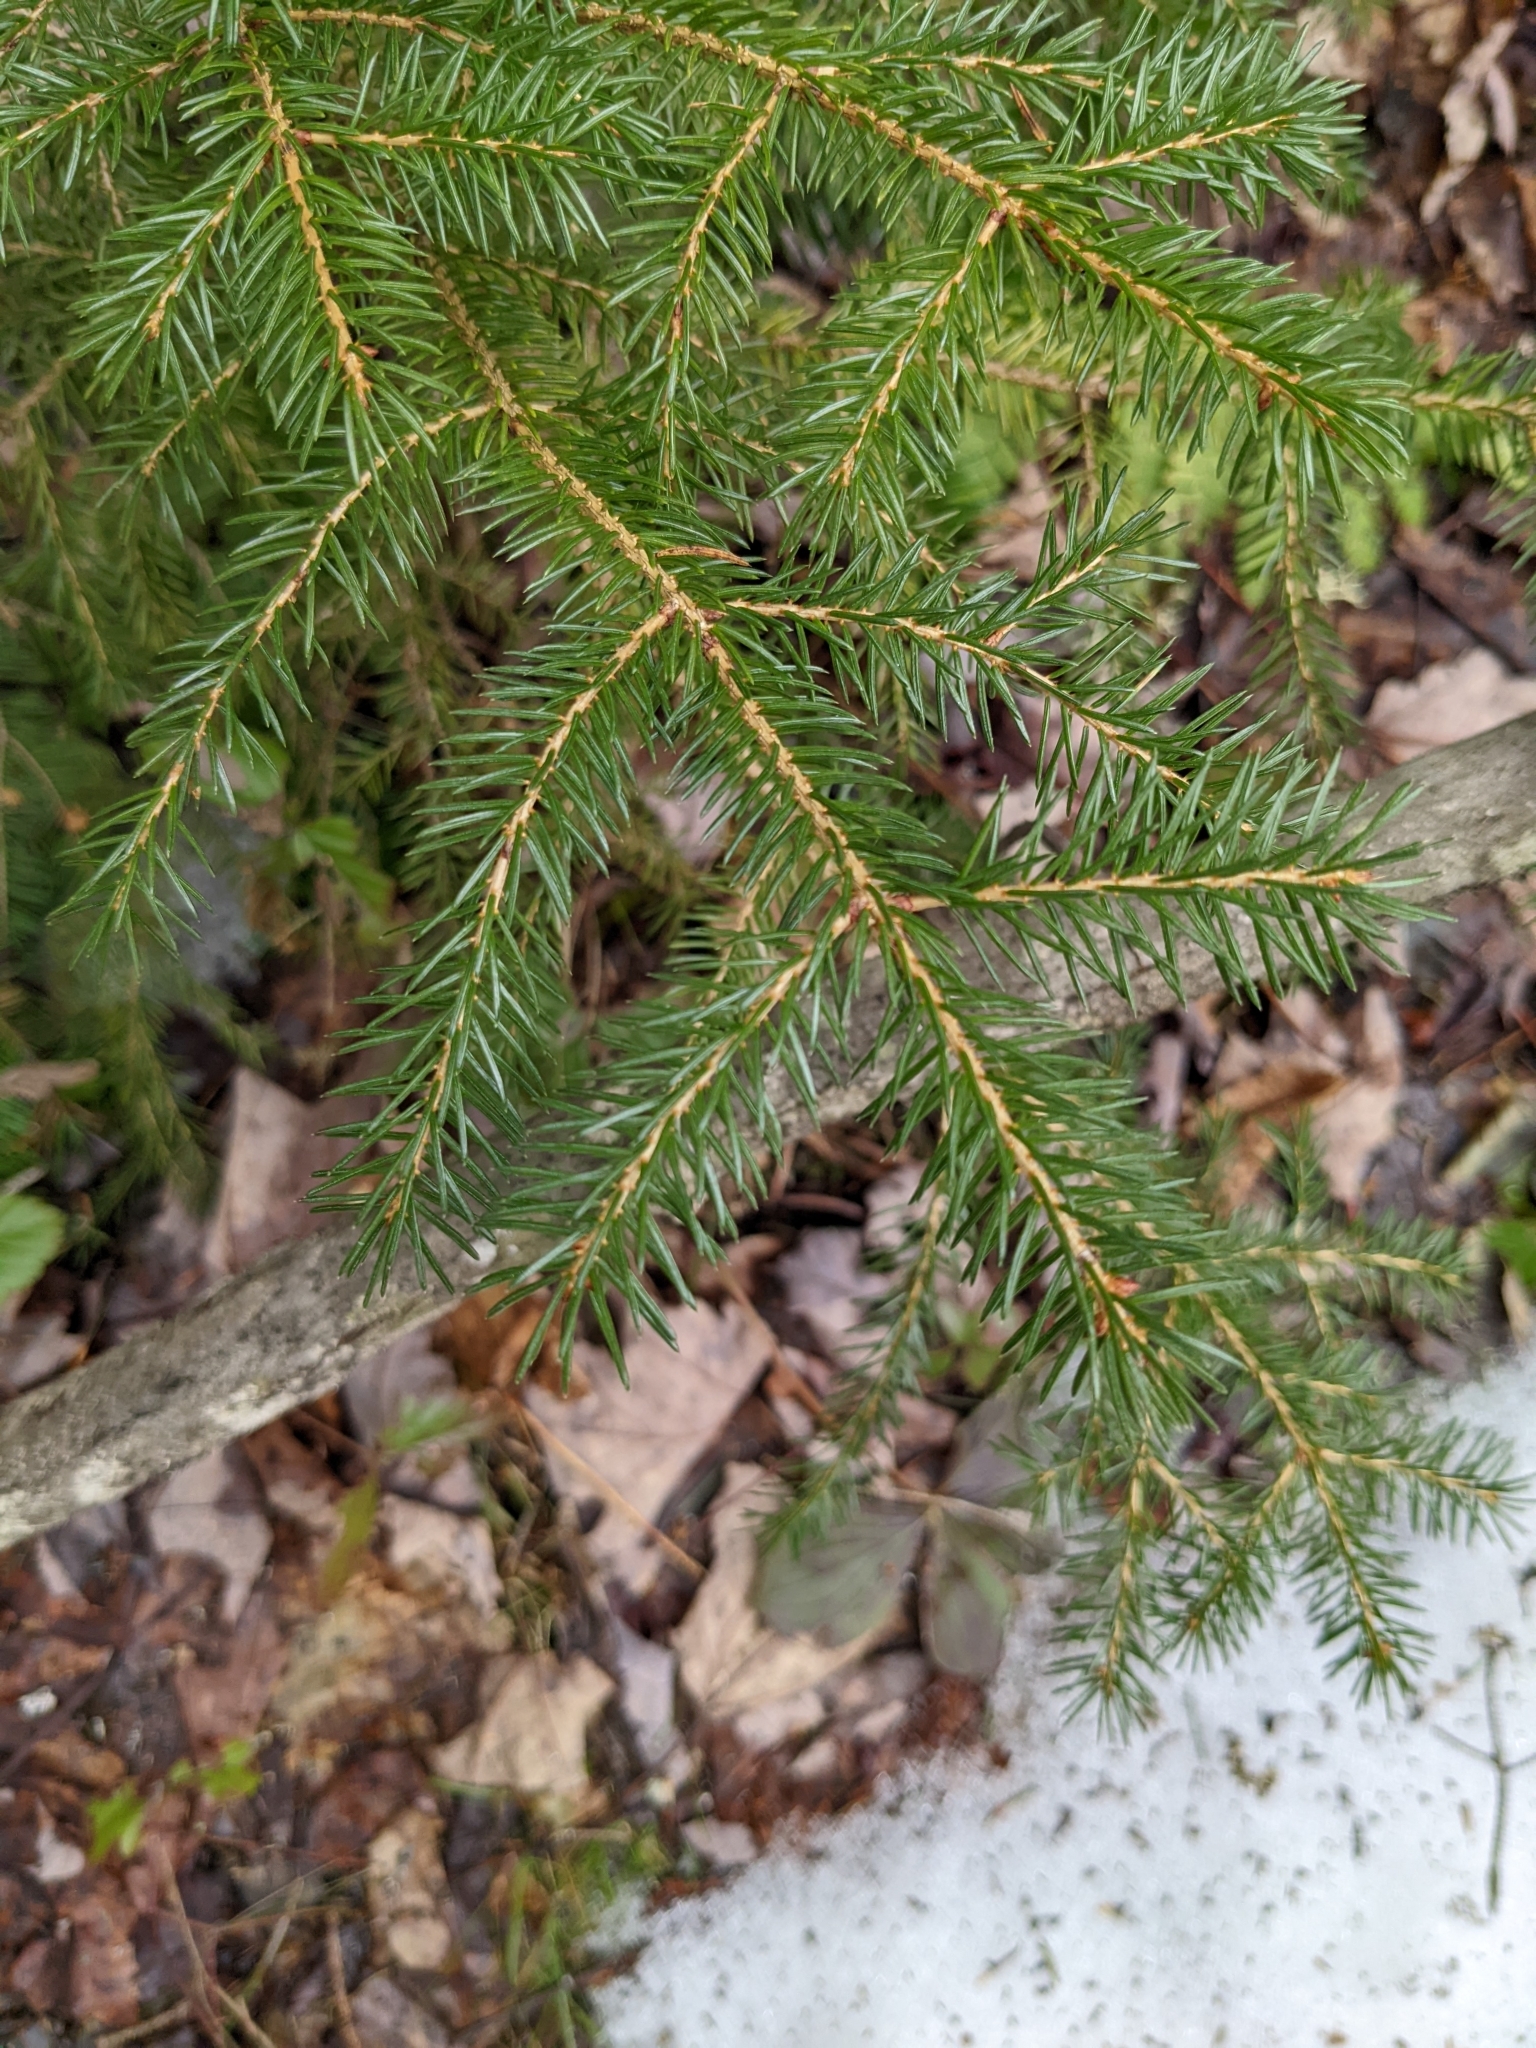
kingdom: Plantae
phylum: Tracheophyta
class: Pinopsida
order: Pinales
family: Pinaceae
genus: Picea
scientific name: Picea rubens
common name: Red spruce
